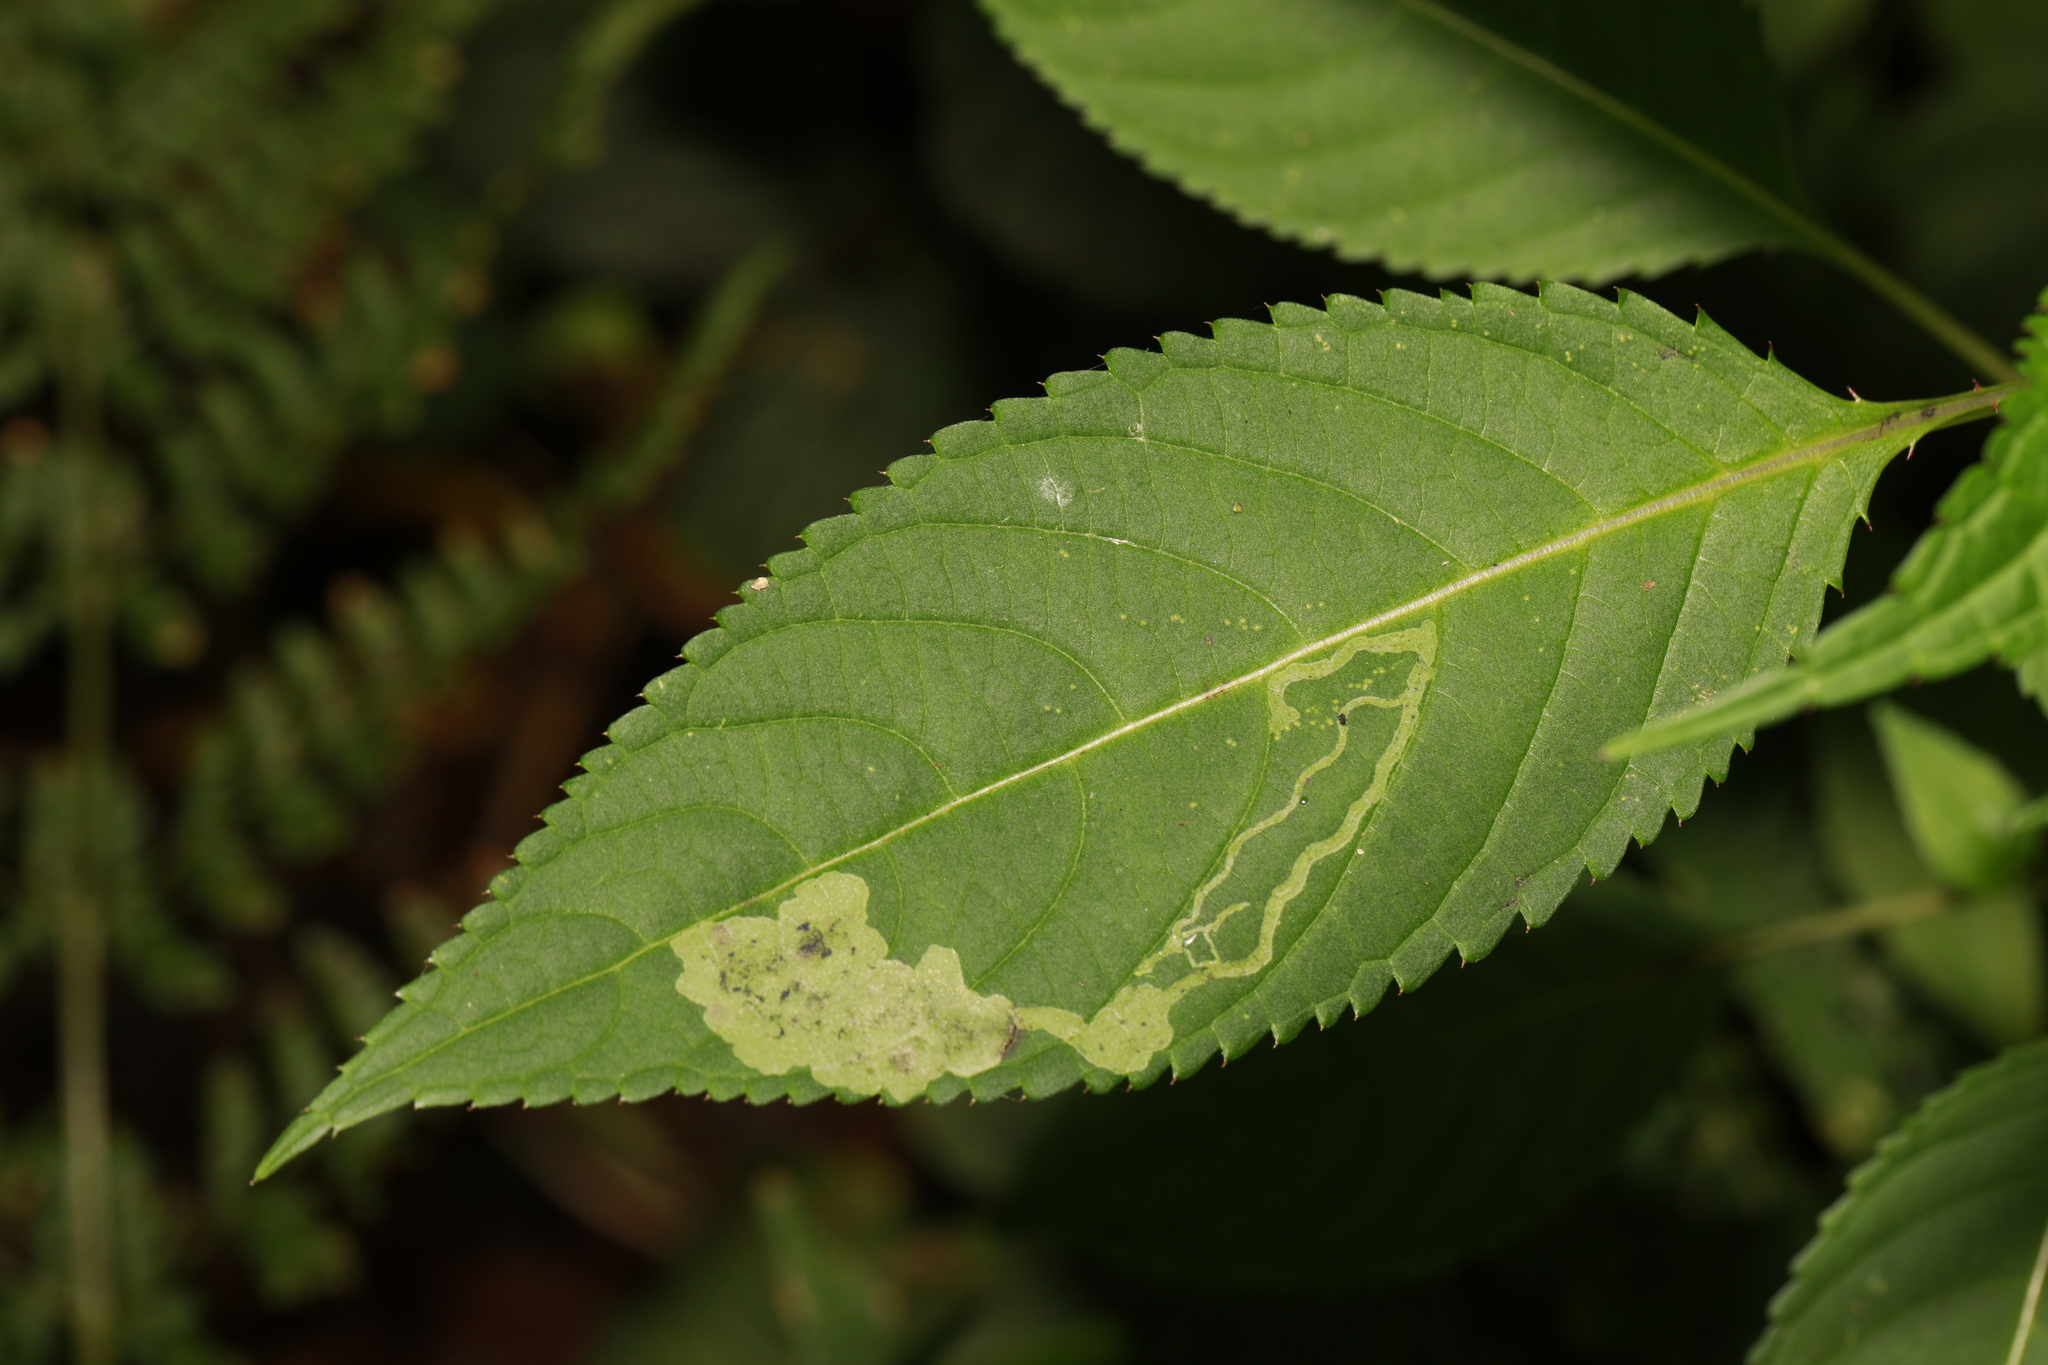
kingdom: Animalia
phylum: Arthropoda
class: Insecta
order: Diptera
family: Agromyzidae
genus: Phytoliriomyza
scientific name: Phytoliriomyza melampyga
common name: Jewelweed leaf-miner fly
